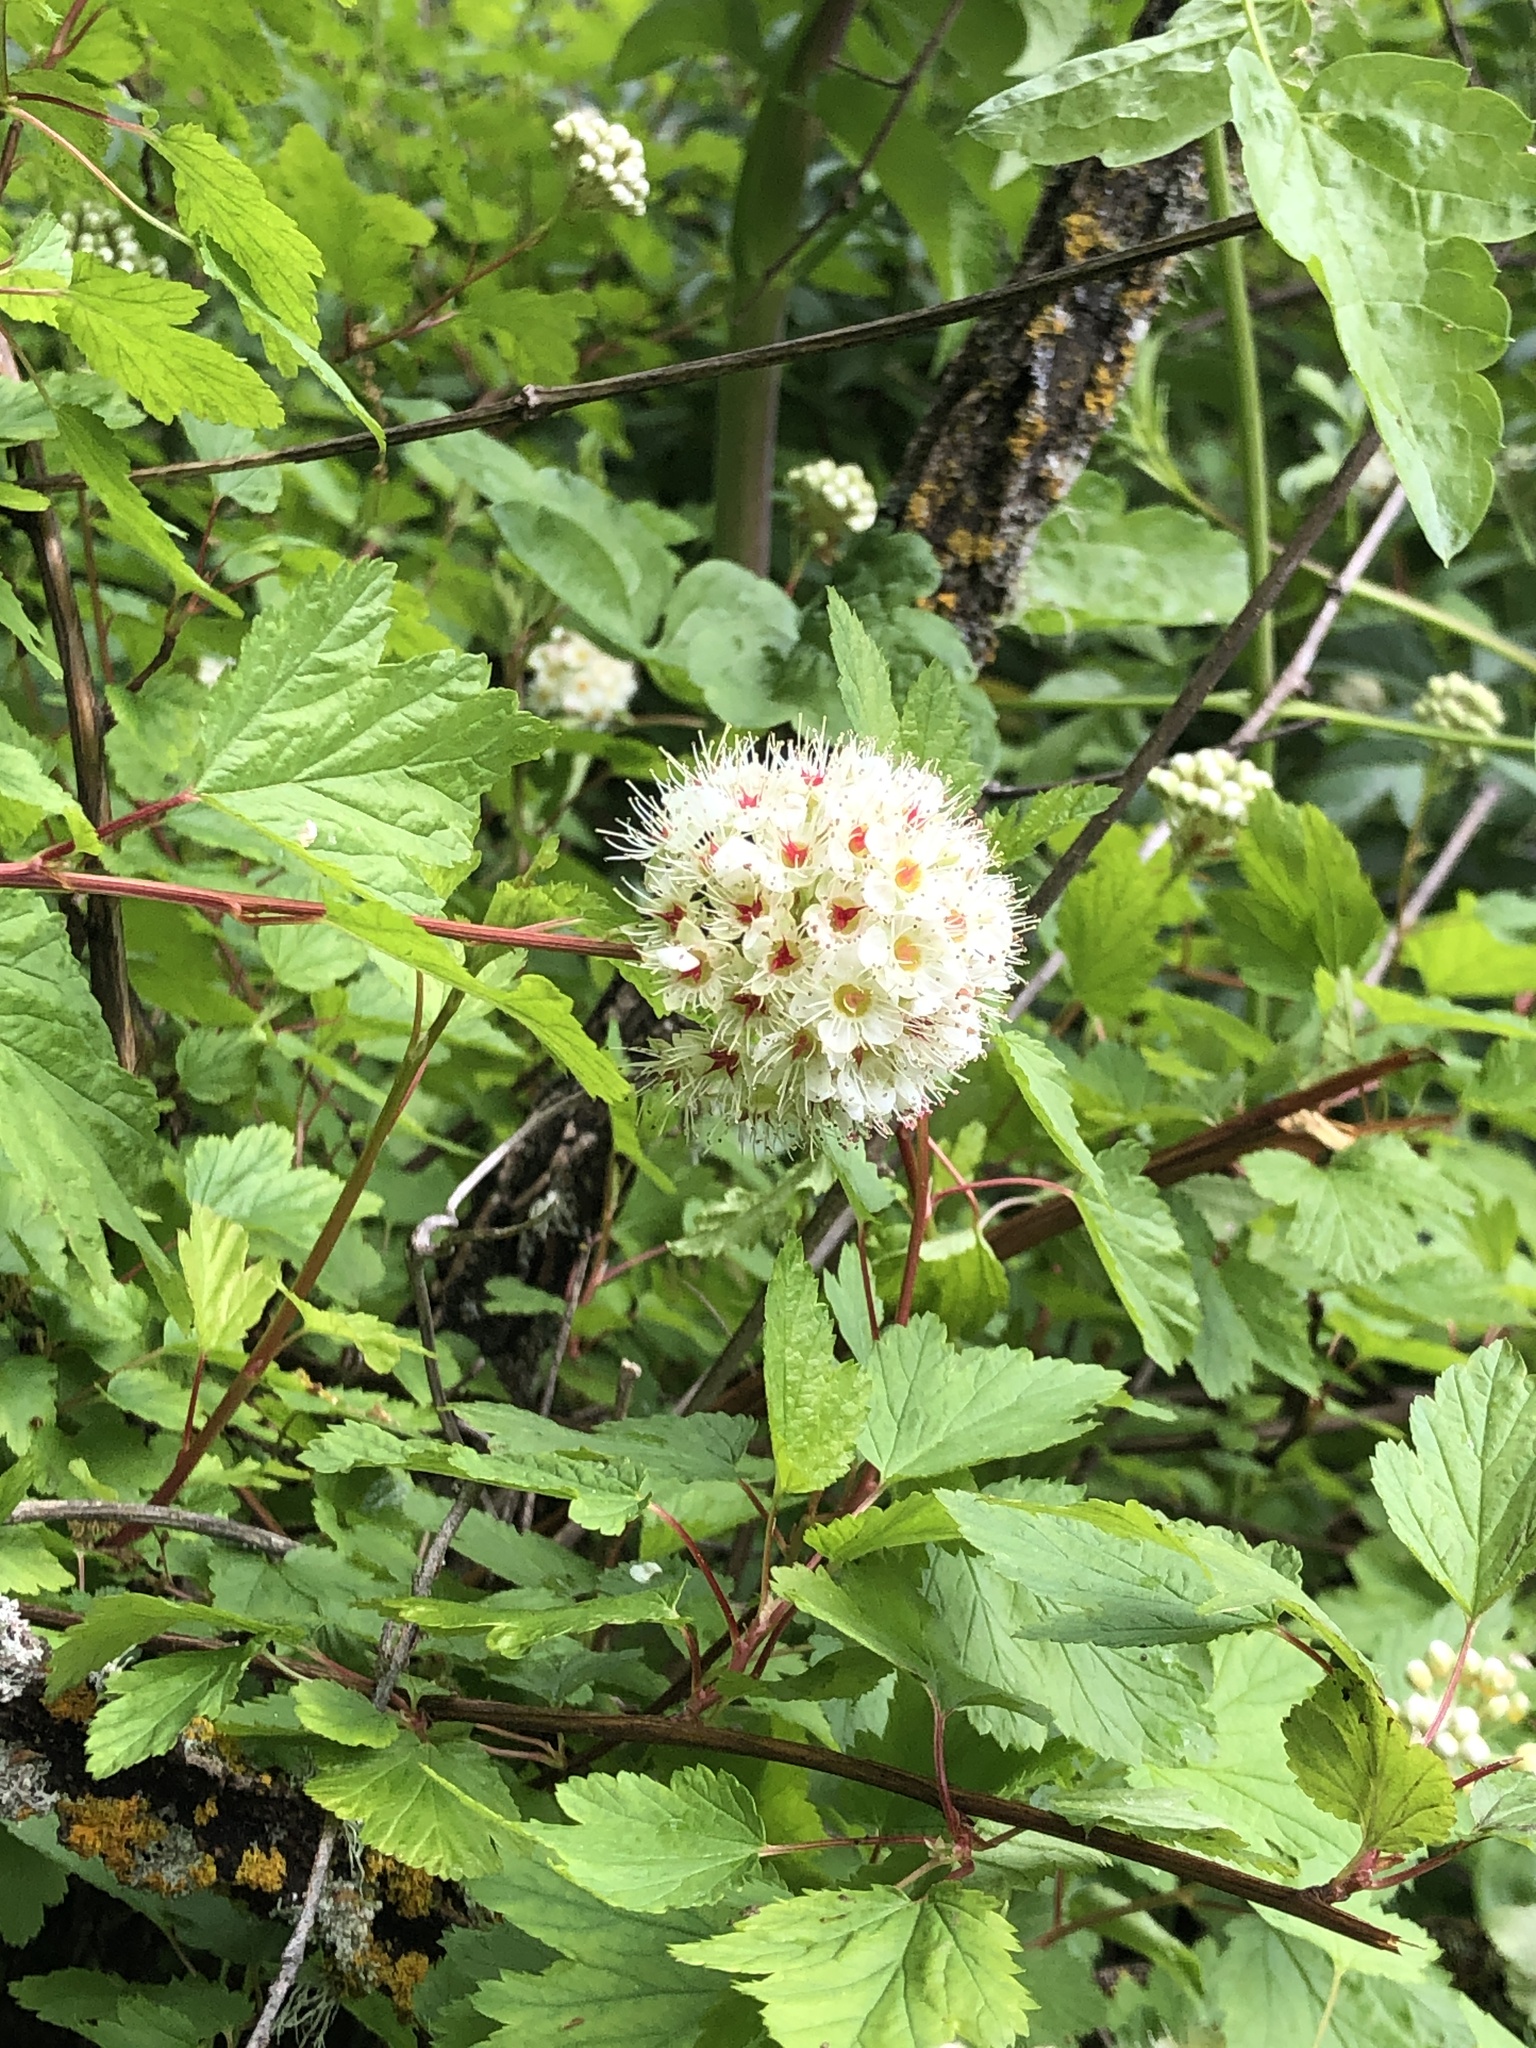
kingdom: Plantae
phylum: Tracheophyta
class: Magnoliopsida
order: Rosales
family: Rosaceae
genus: Physocarpus
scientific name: Physocarpus capitatus
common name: Pacific ninebark
